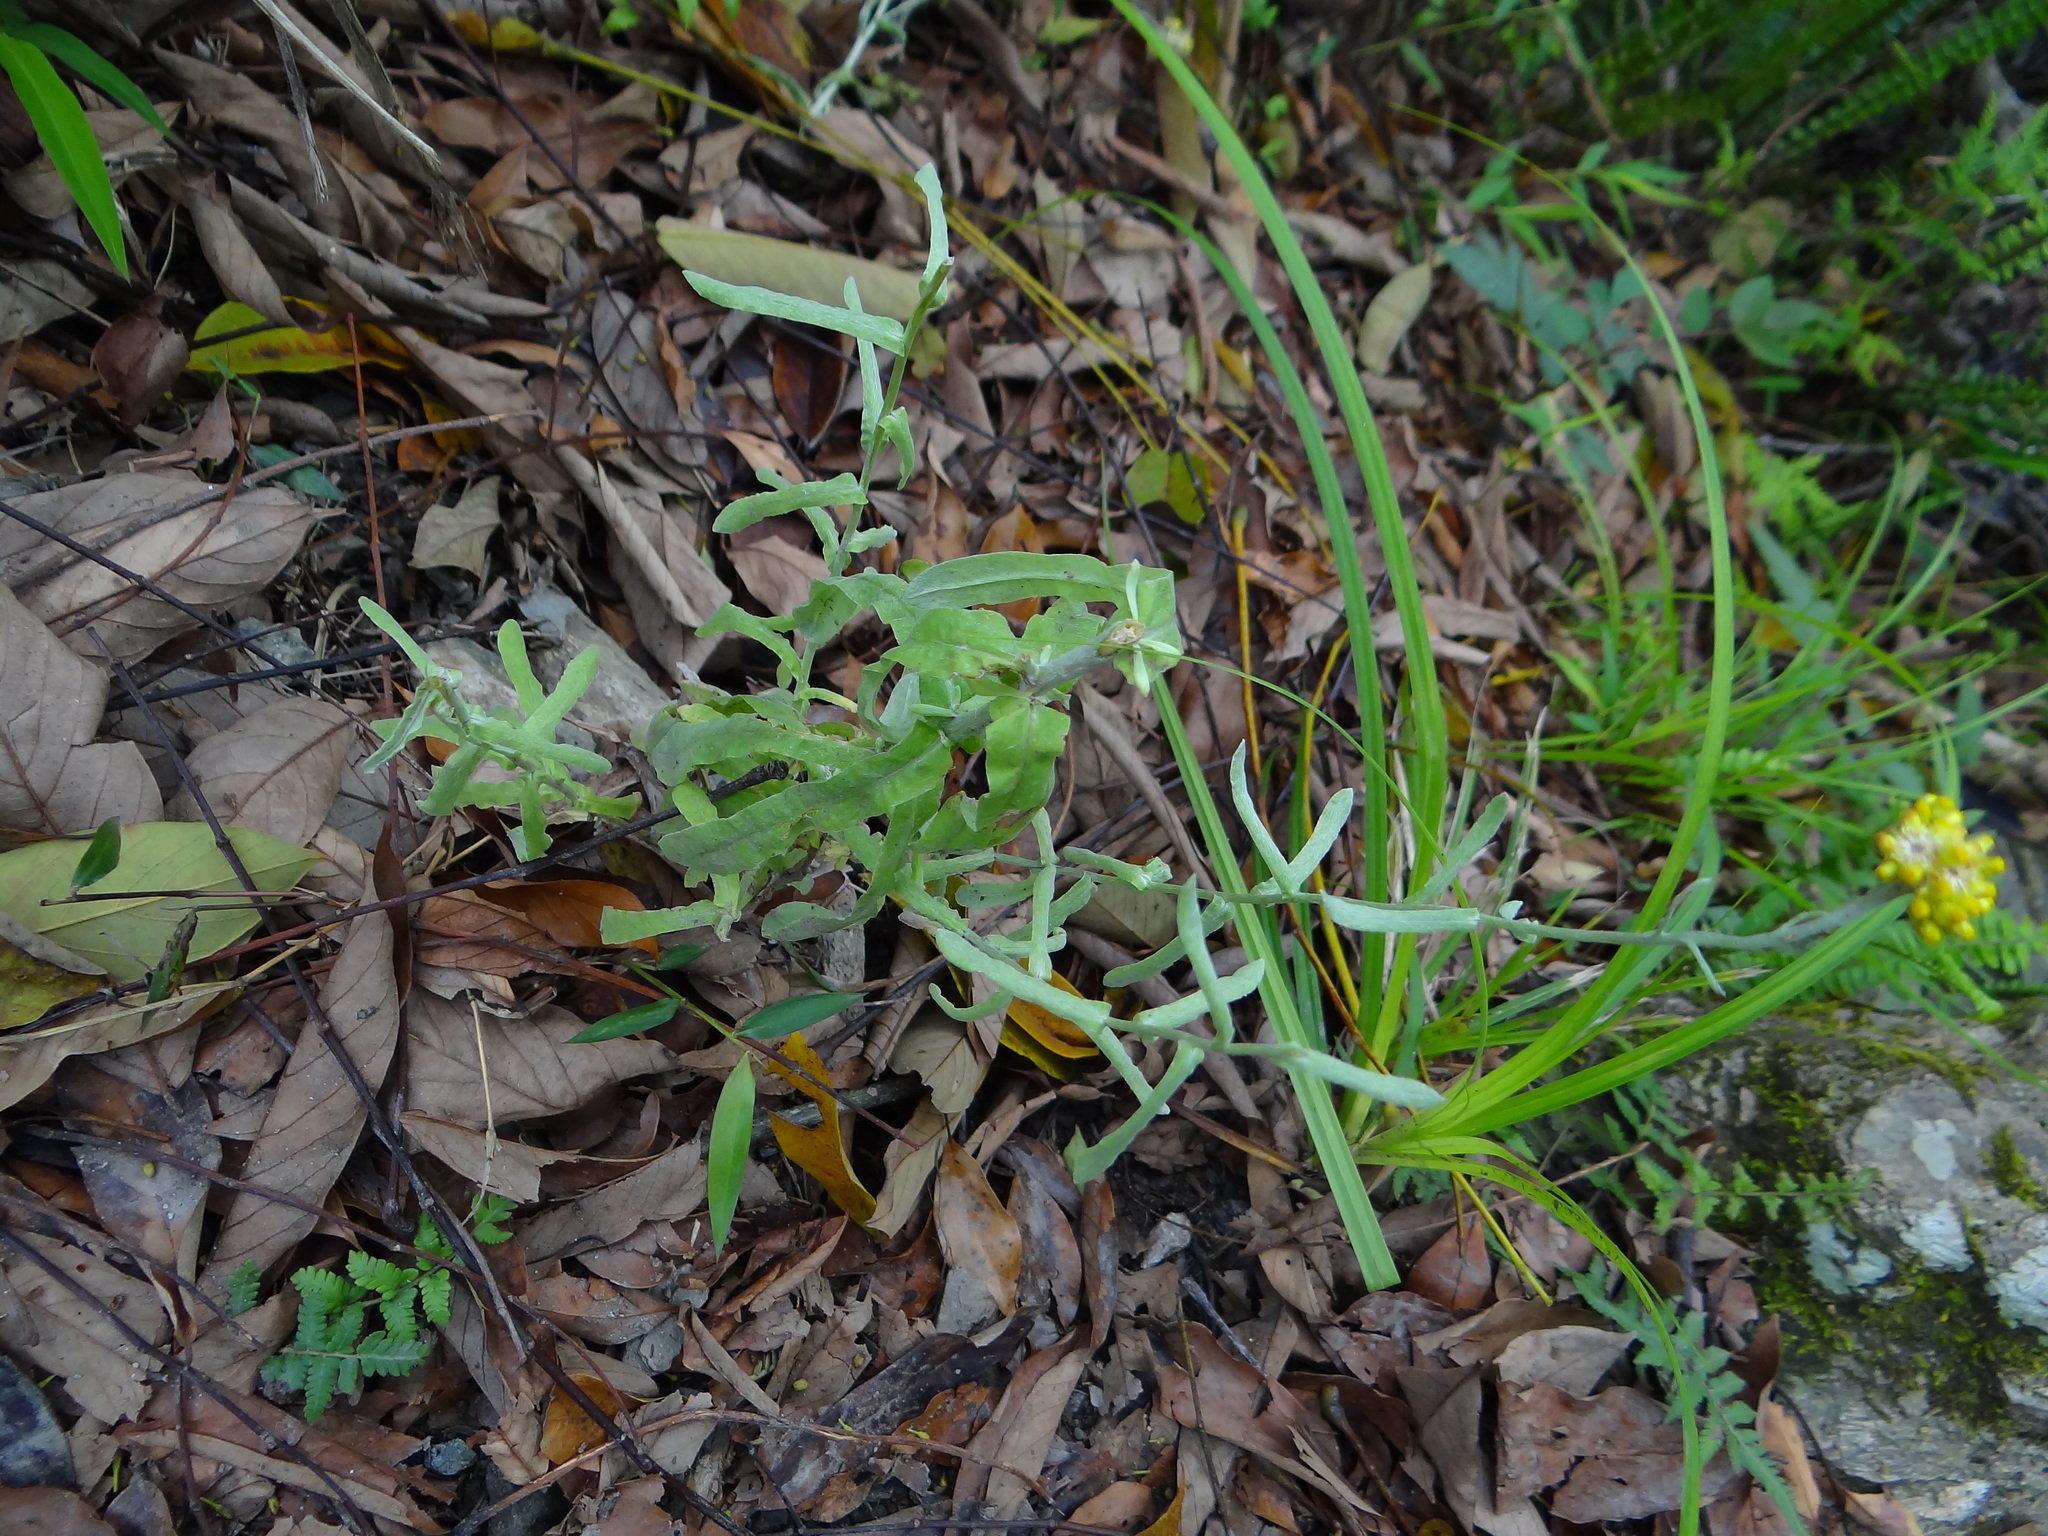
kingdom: Plantae
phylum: Tracheophyta
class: Magnoliopsida
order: Asterales
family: Asteraceae
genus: Pseudognaphalium
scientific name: Pseudognaphalium affine
